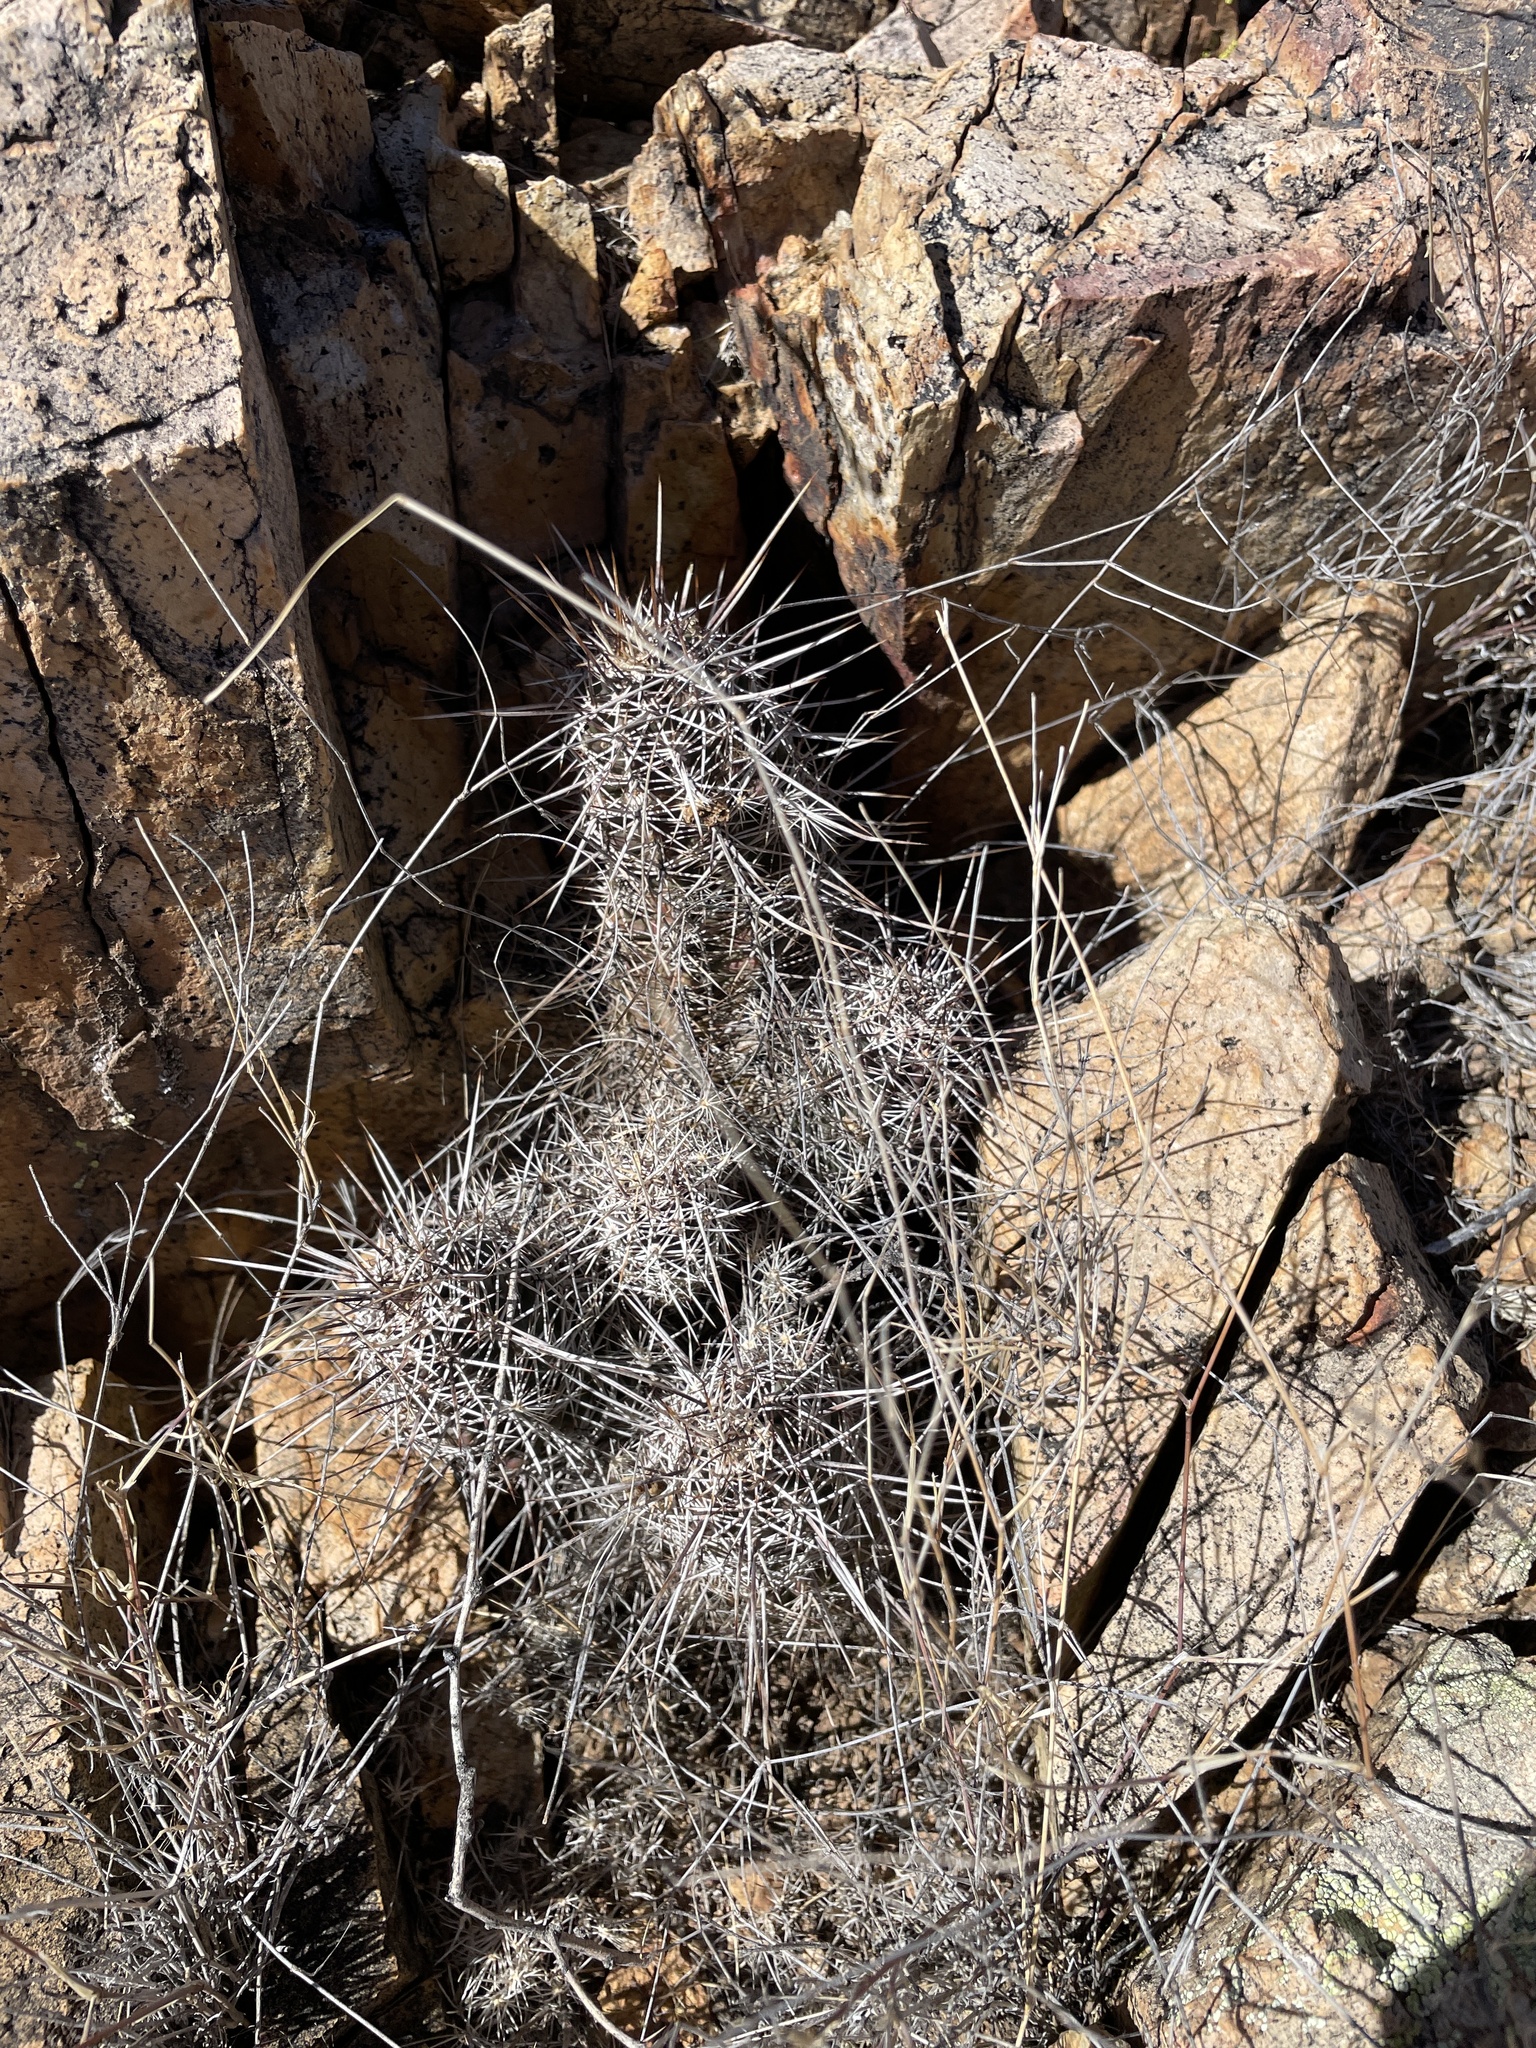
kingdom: Plantae
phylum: Tracheophyta
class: Magnoliopsida
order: Caryophyllales
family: Cactaceae
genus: Echinocereus
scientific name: Echinocereus fendleri
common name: Fendler's hedgehog cactus
